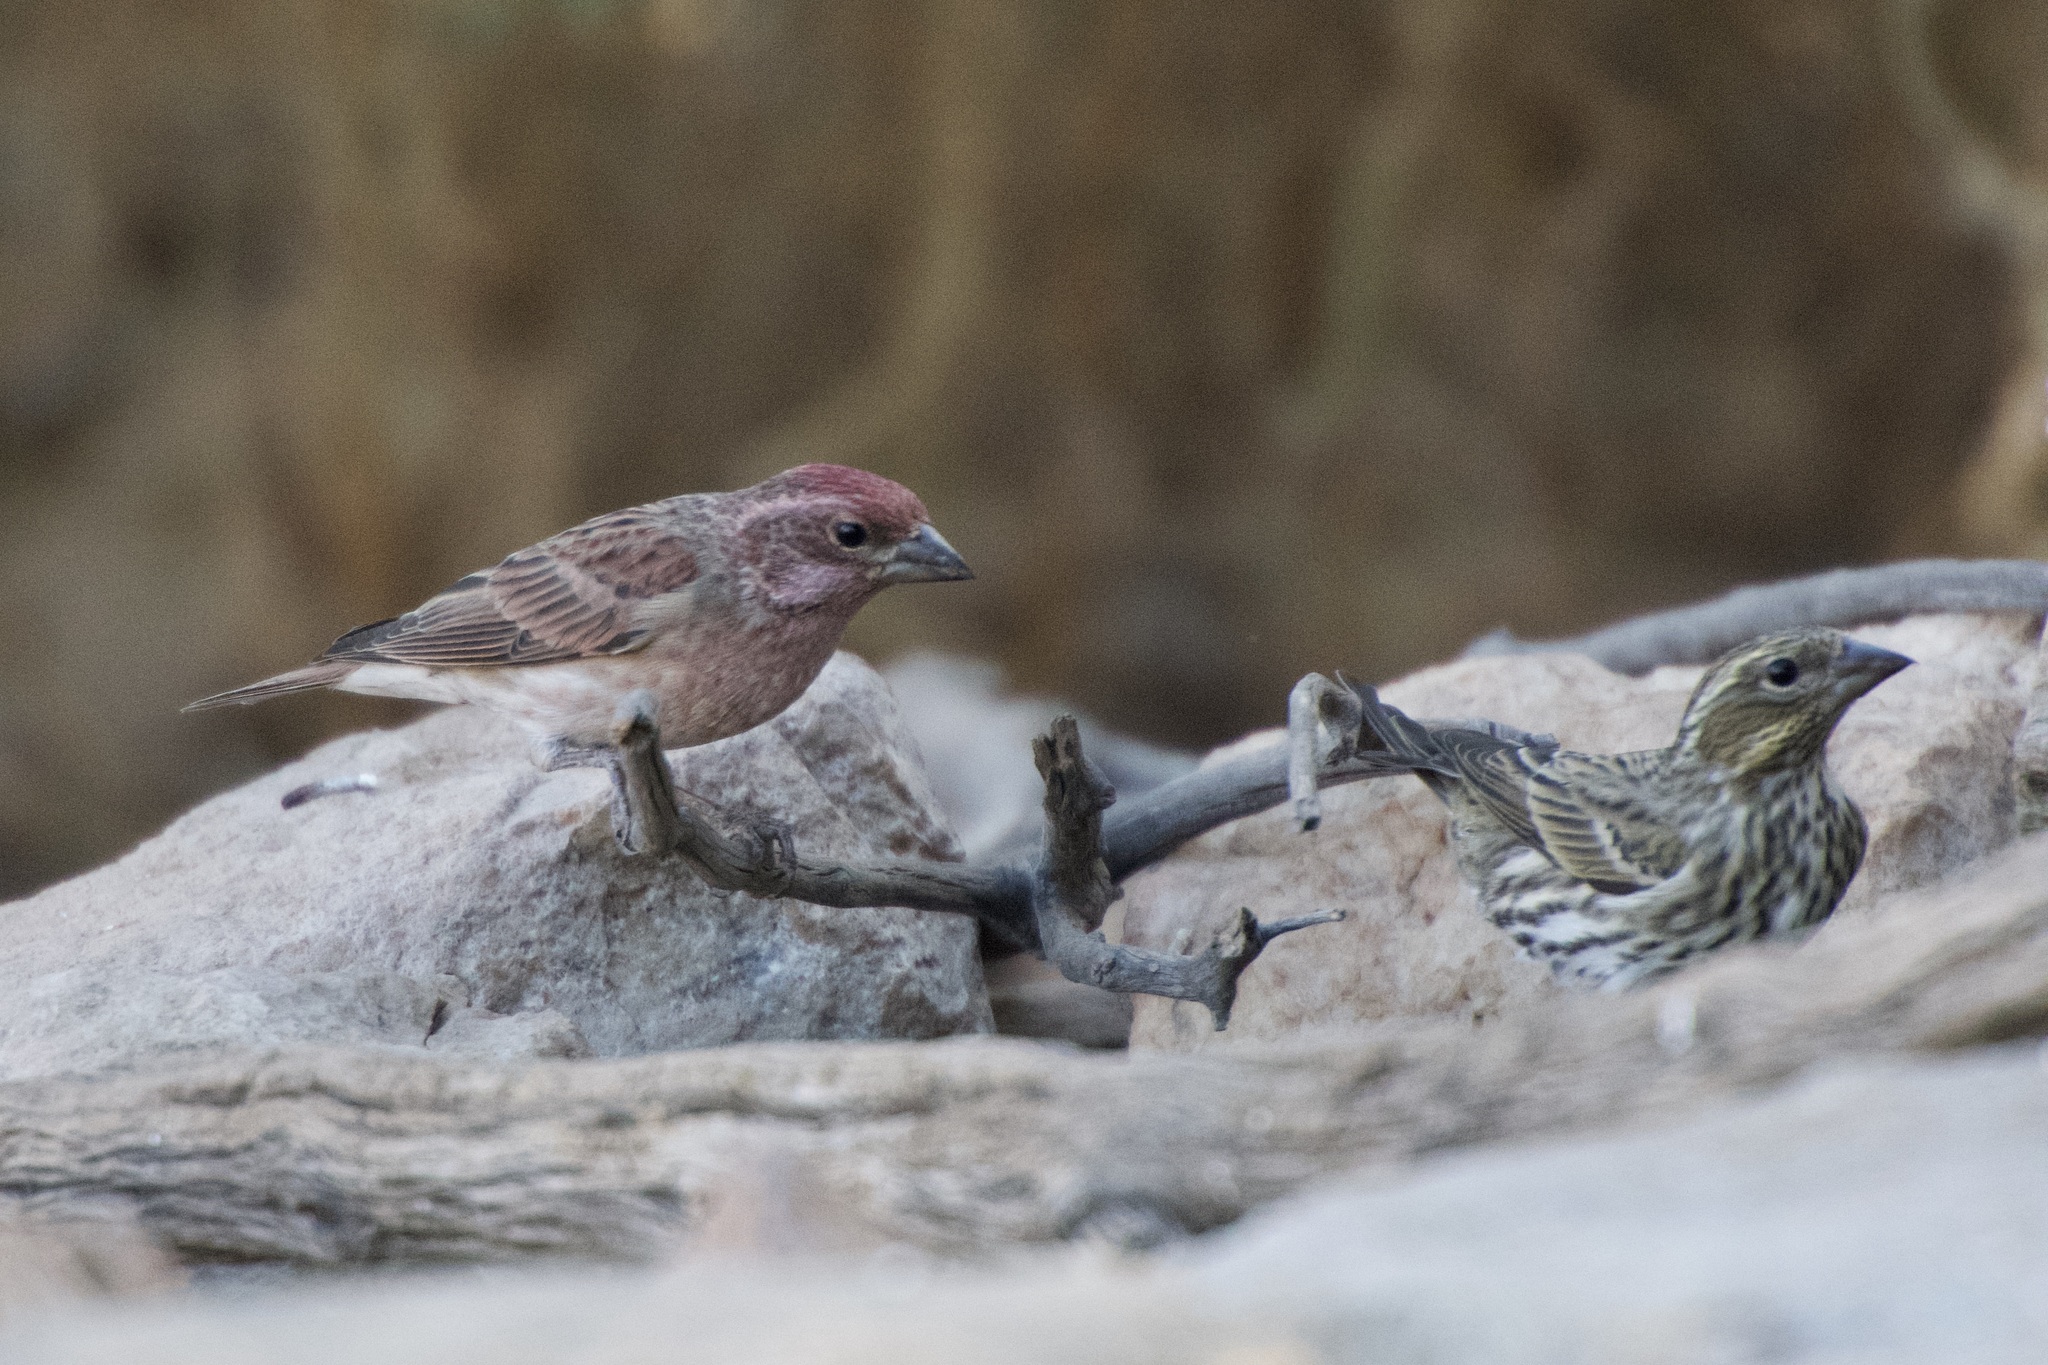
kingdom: Animalia
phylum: Chordata
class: Aves
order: Passeriformes
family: Fringillidae
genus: Haemorhous
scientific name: Haemorhous cassinii
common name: Cassin's finch
